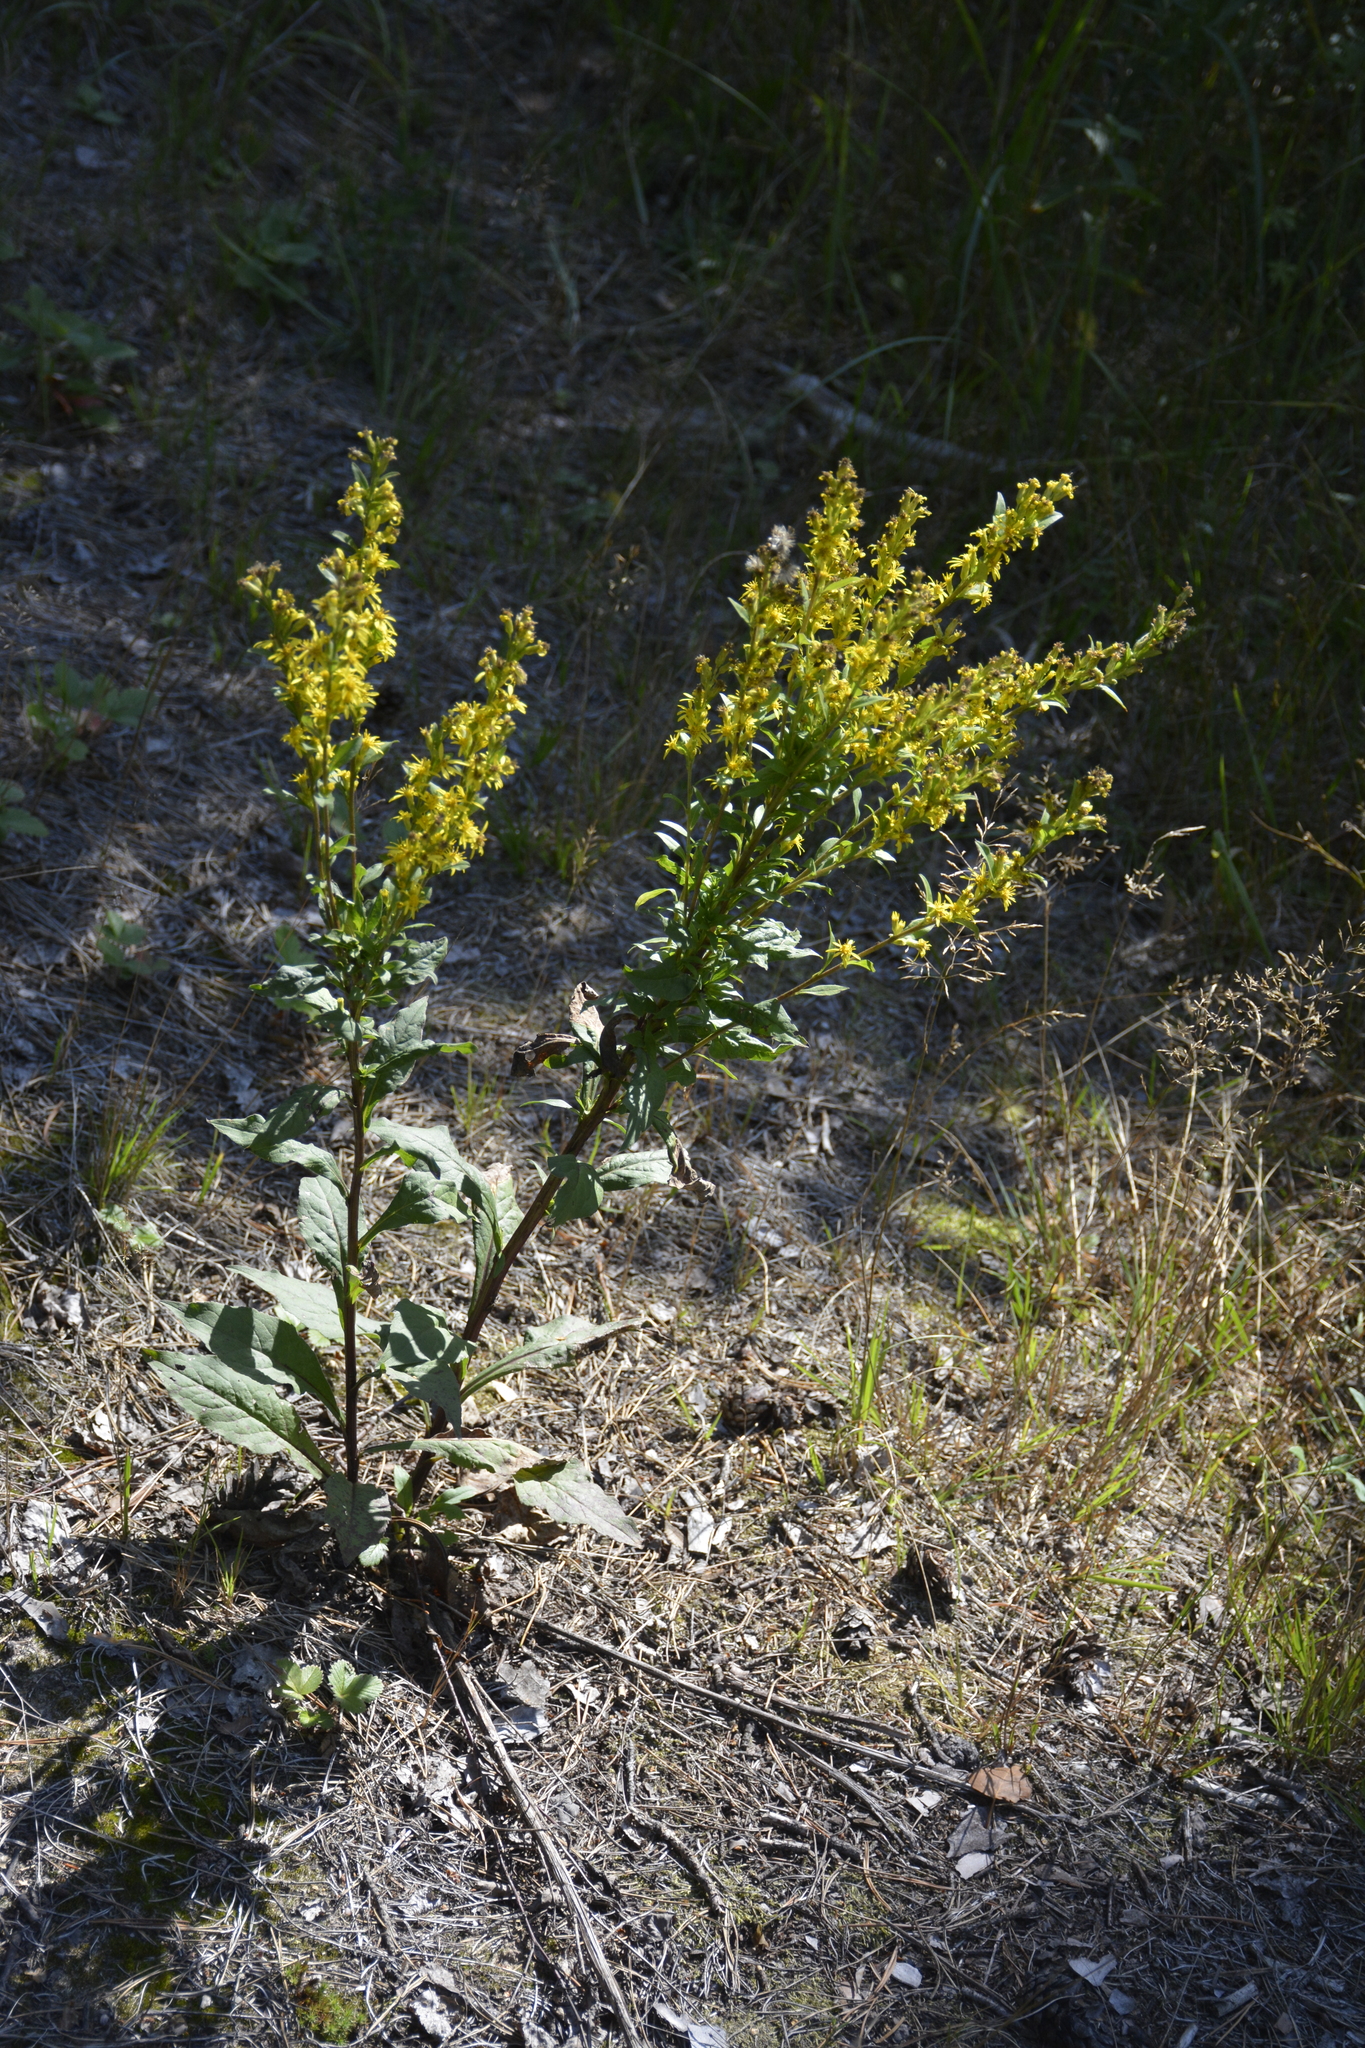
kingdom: Plantae
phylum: Tracheophyta
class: Magnoliopsida
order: Asterales
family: Asteraceae
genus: Solidago
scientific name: Solidago virgaurea
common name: Goldenrod
